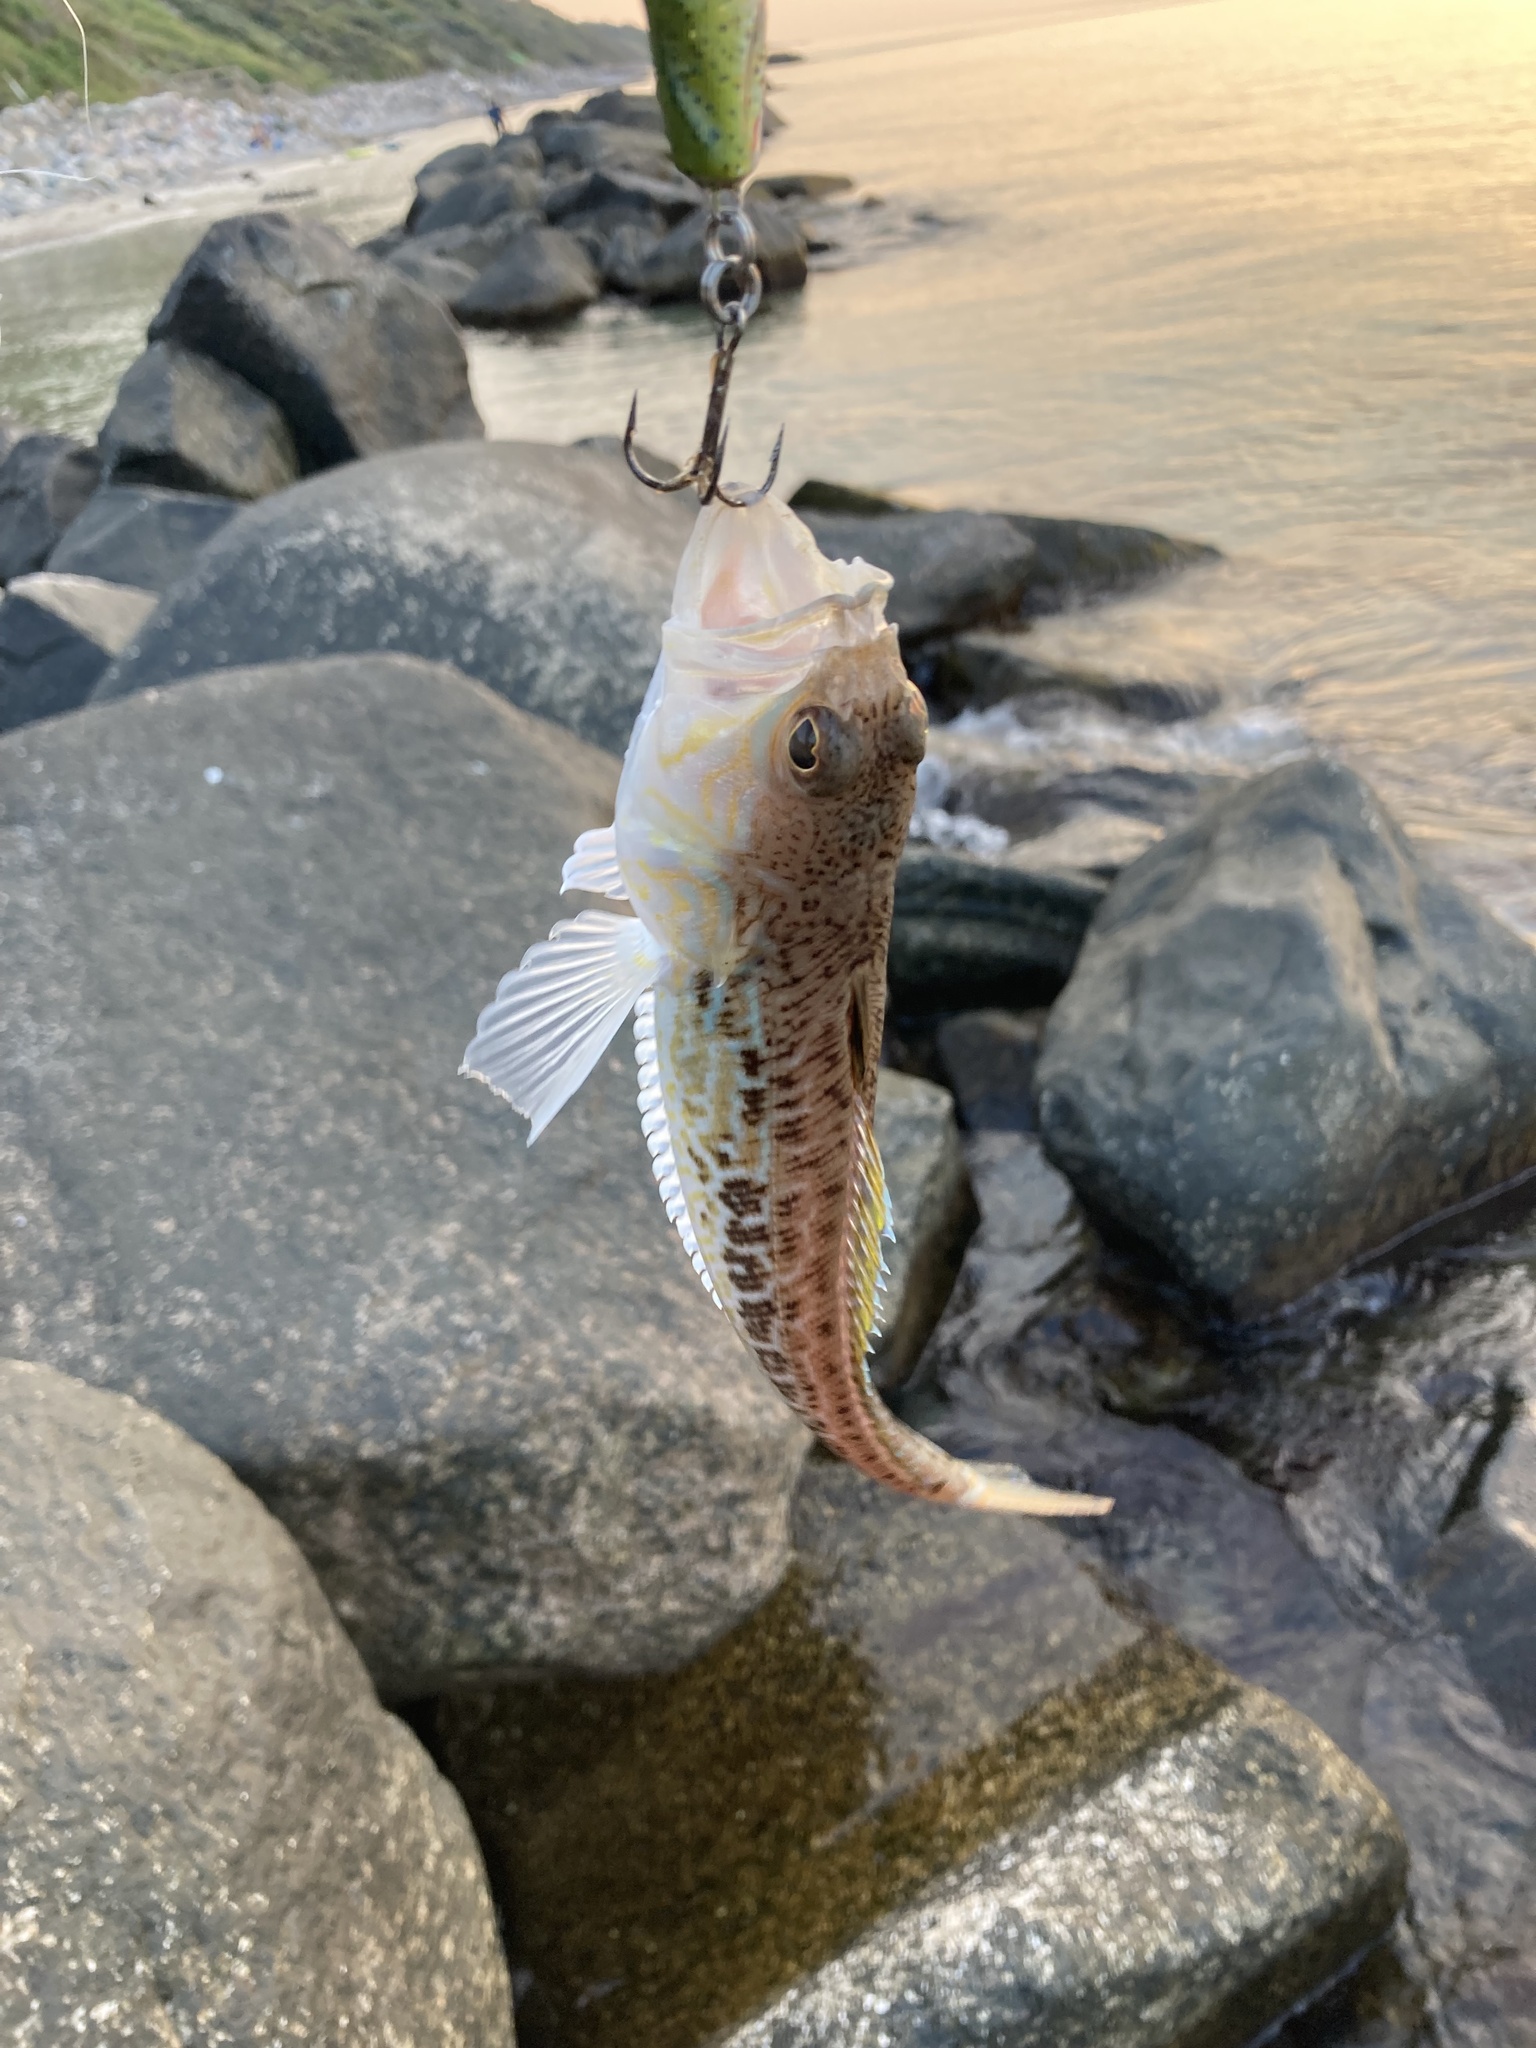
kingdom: Animalia
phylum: Chordata
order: Perciformes
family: Trachinidae
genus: Trachinus
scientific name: Trachinus draco
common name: Greater weever
